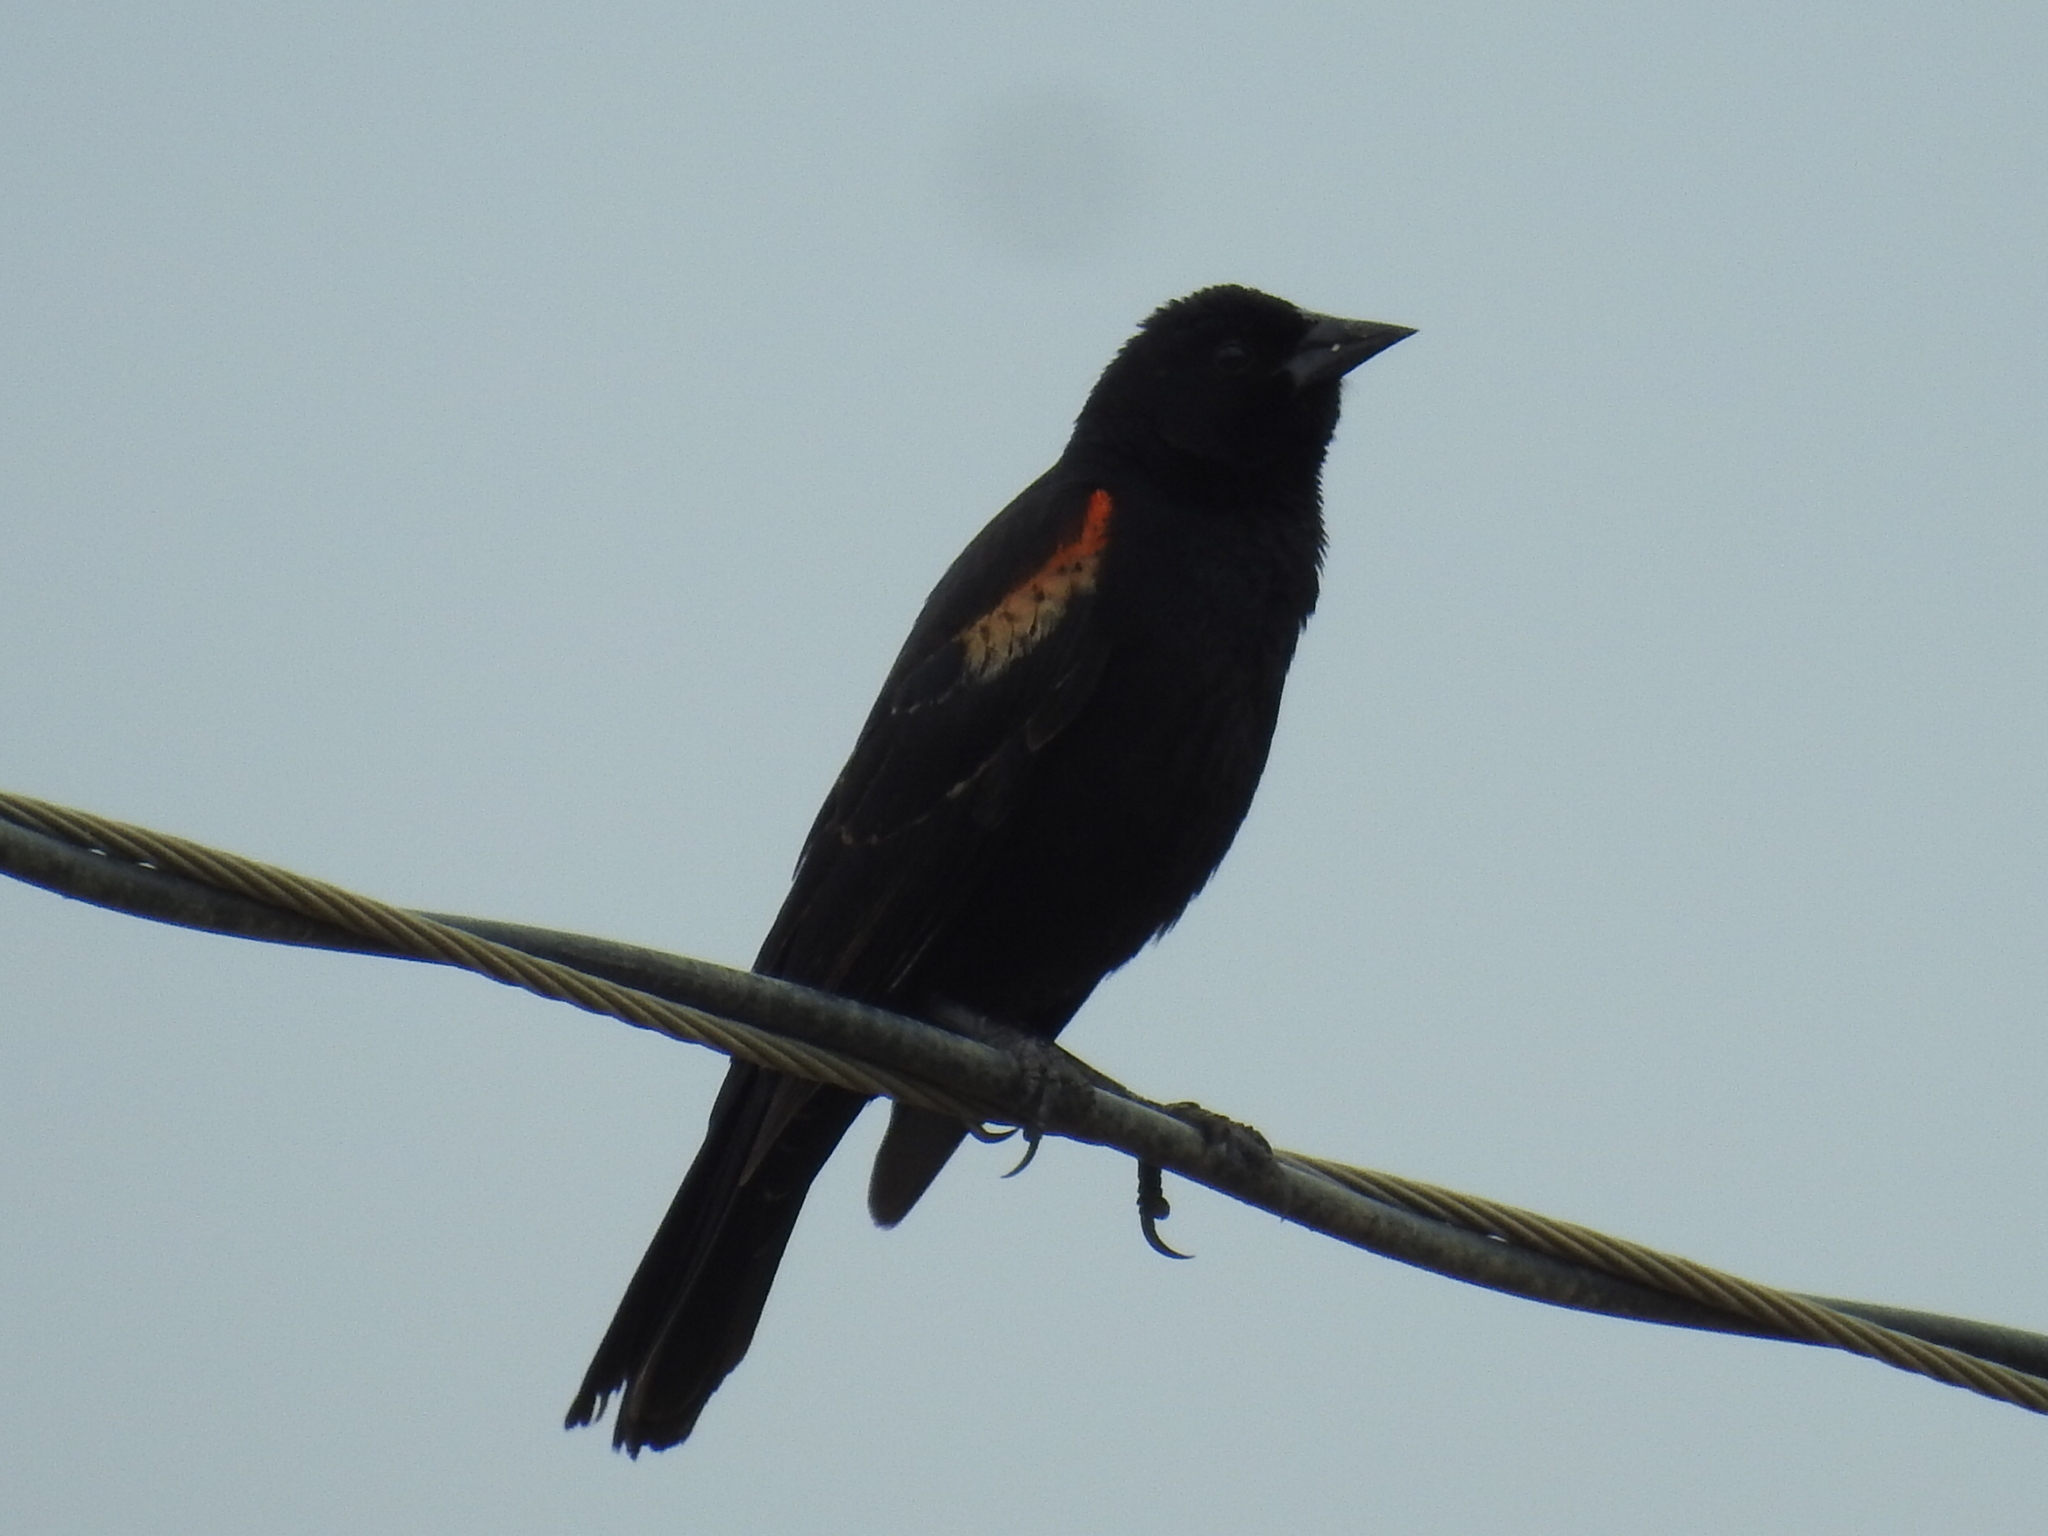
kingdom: Animalia
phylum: Chordata
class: Aves
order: Passeriformes
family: Icteridae
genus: Agelaius
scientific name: Agelaius phoeniceus
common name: Red-winged blackbird
